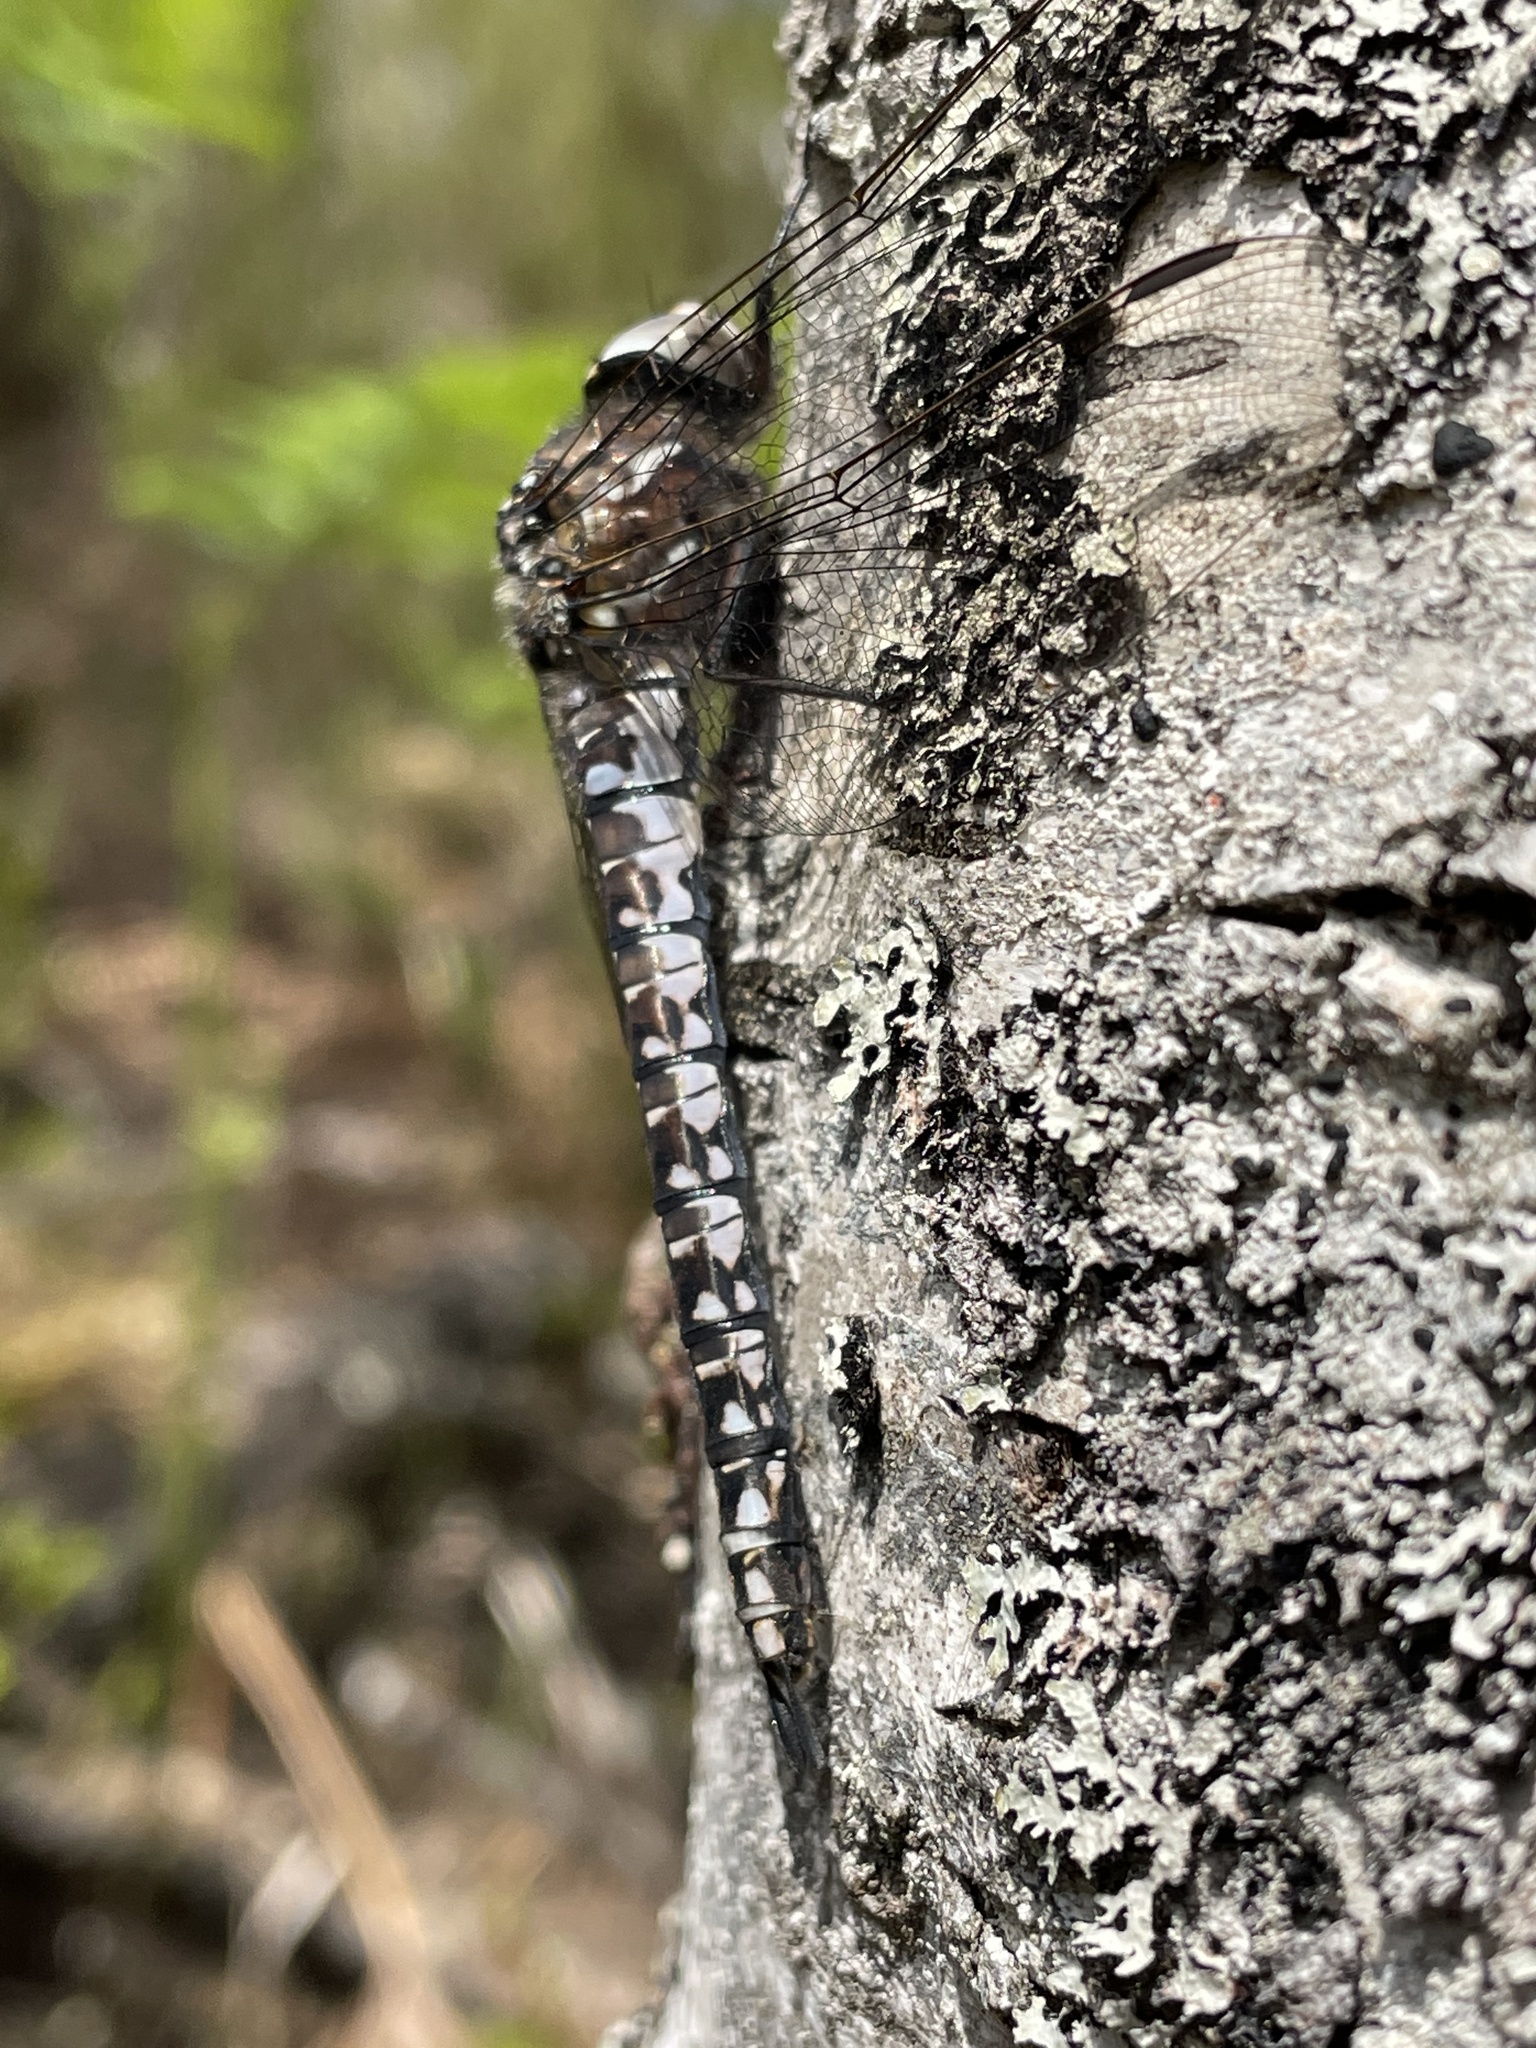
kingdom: Animalia
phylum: Arthropoda
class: Insecta
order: Odonata
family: Aeshnidae
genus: Aeshna
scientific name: Aeshna caerulea
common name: Azure hawker
